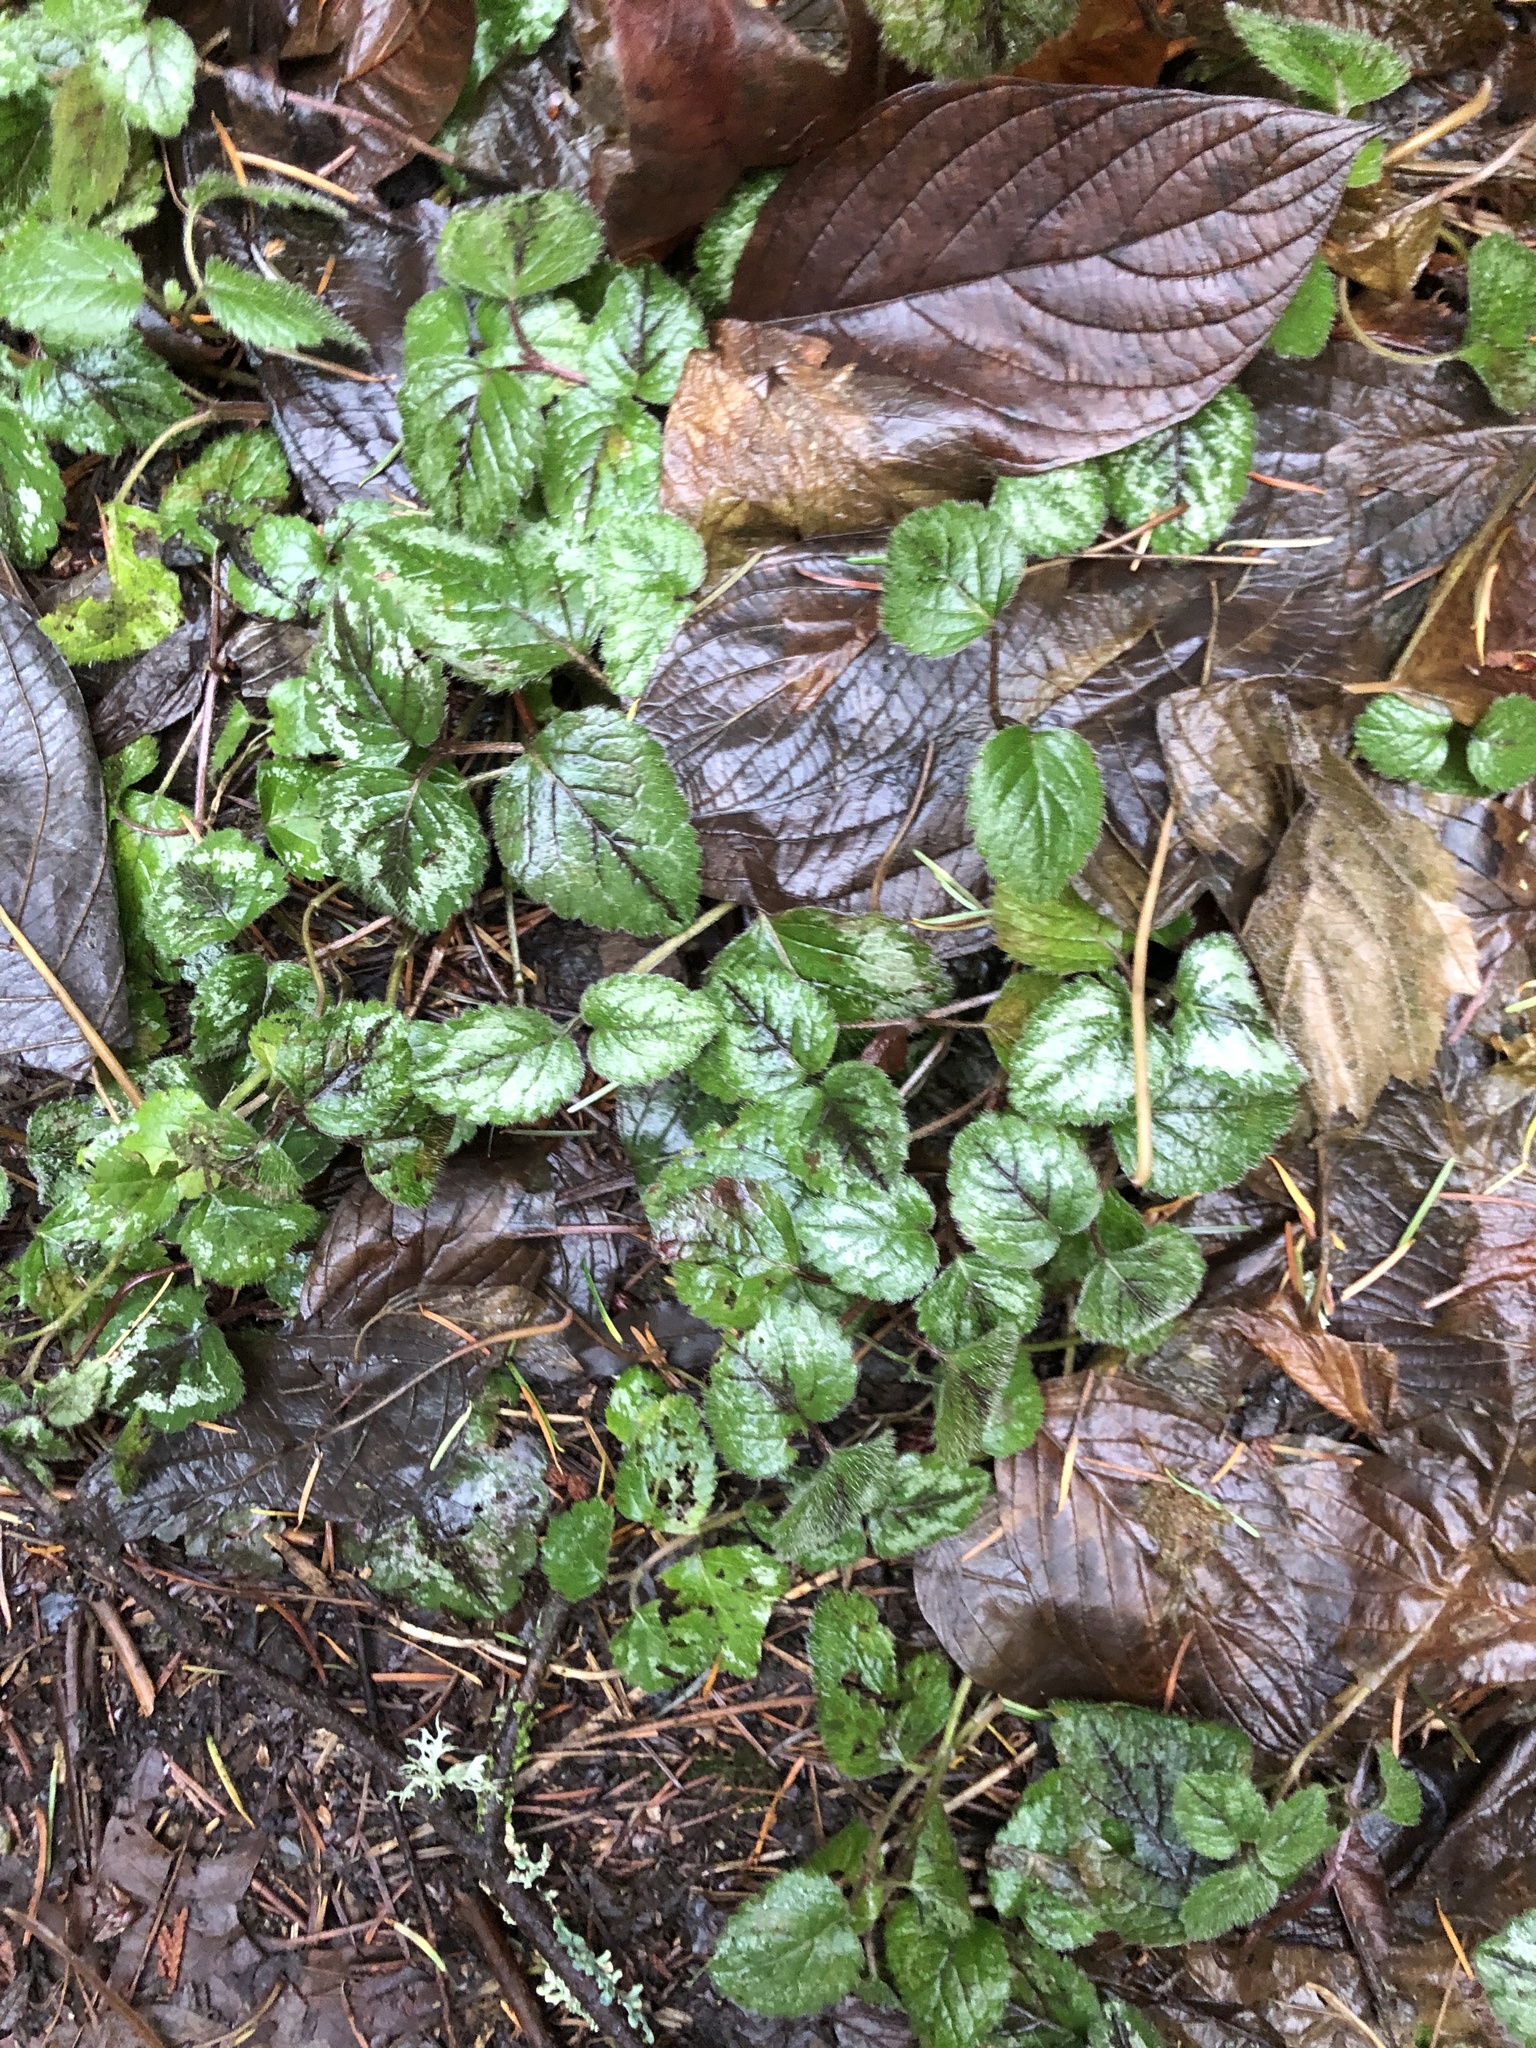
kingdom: Plantae
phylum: Tracheophyta
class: Magnoliopsida
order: Lamiales
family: Lamiaceae
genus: Lamium
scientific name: Lamium galeobdolon
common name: Yellow archangel
